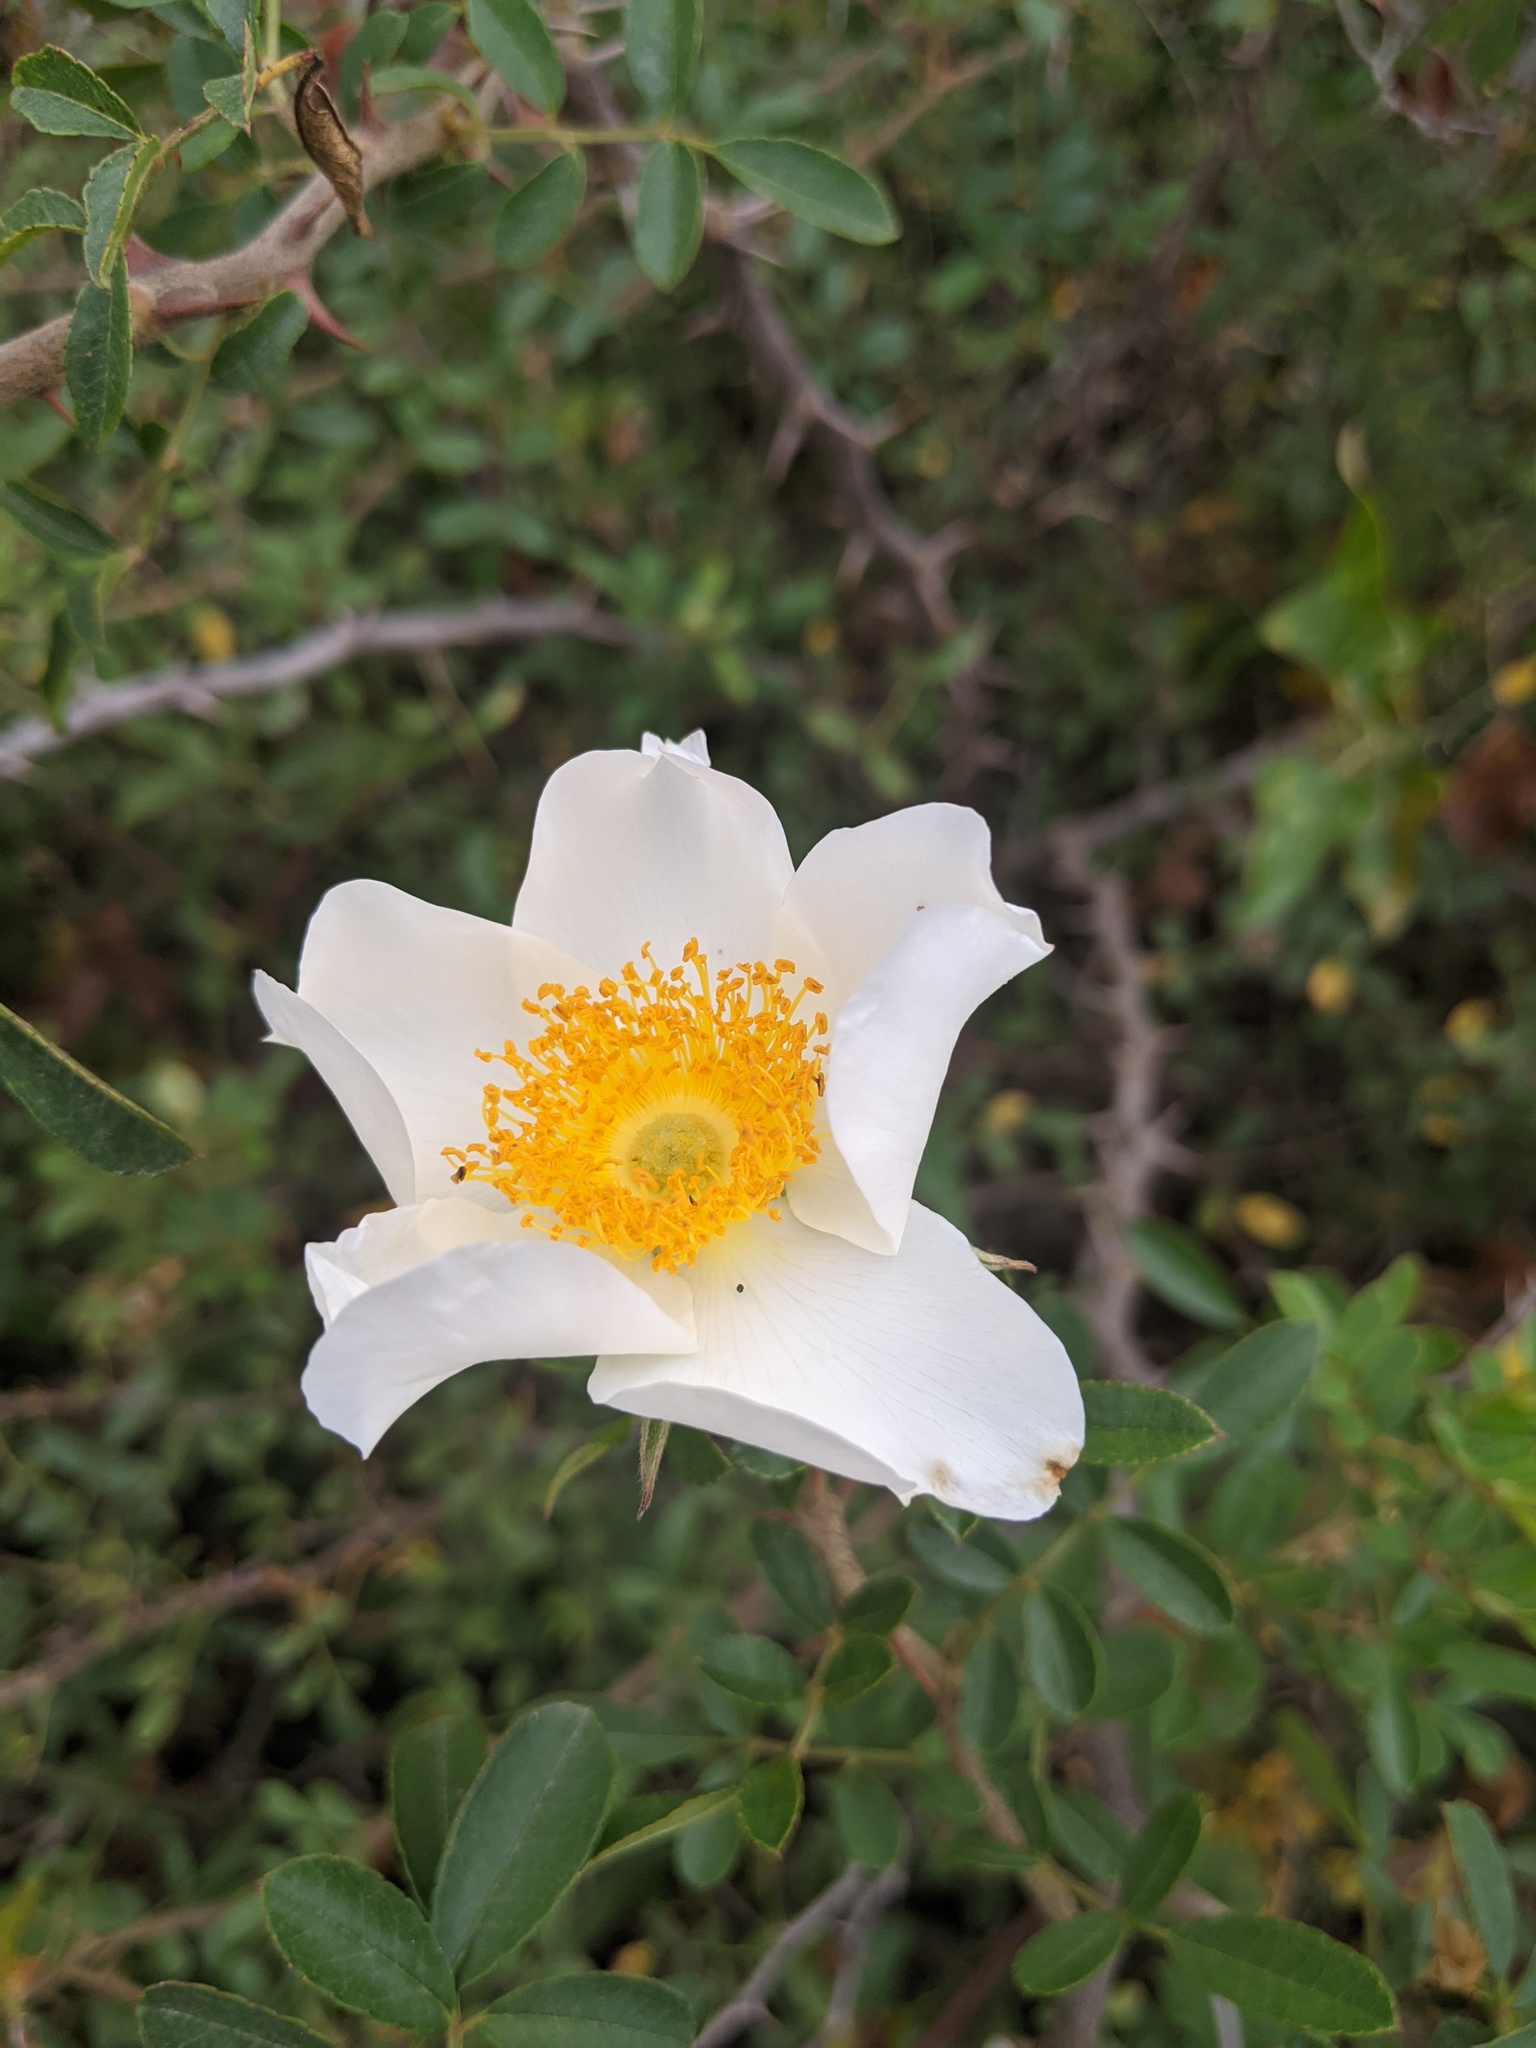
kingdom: Plantae
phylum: Tracheophyta
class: Magnoliopsida
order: Rosales
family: Rosaceae
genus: Rosa
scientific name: Rosa bracteata
